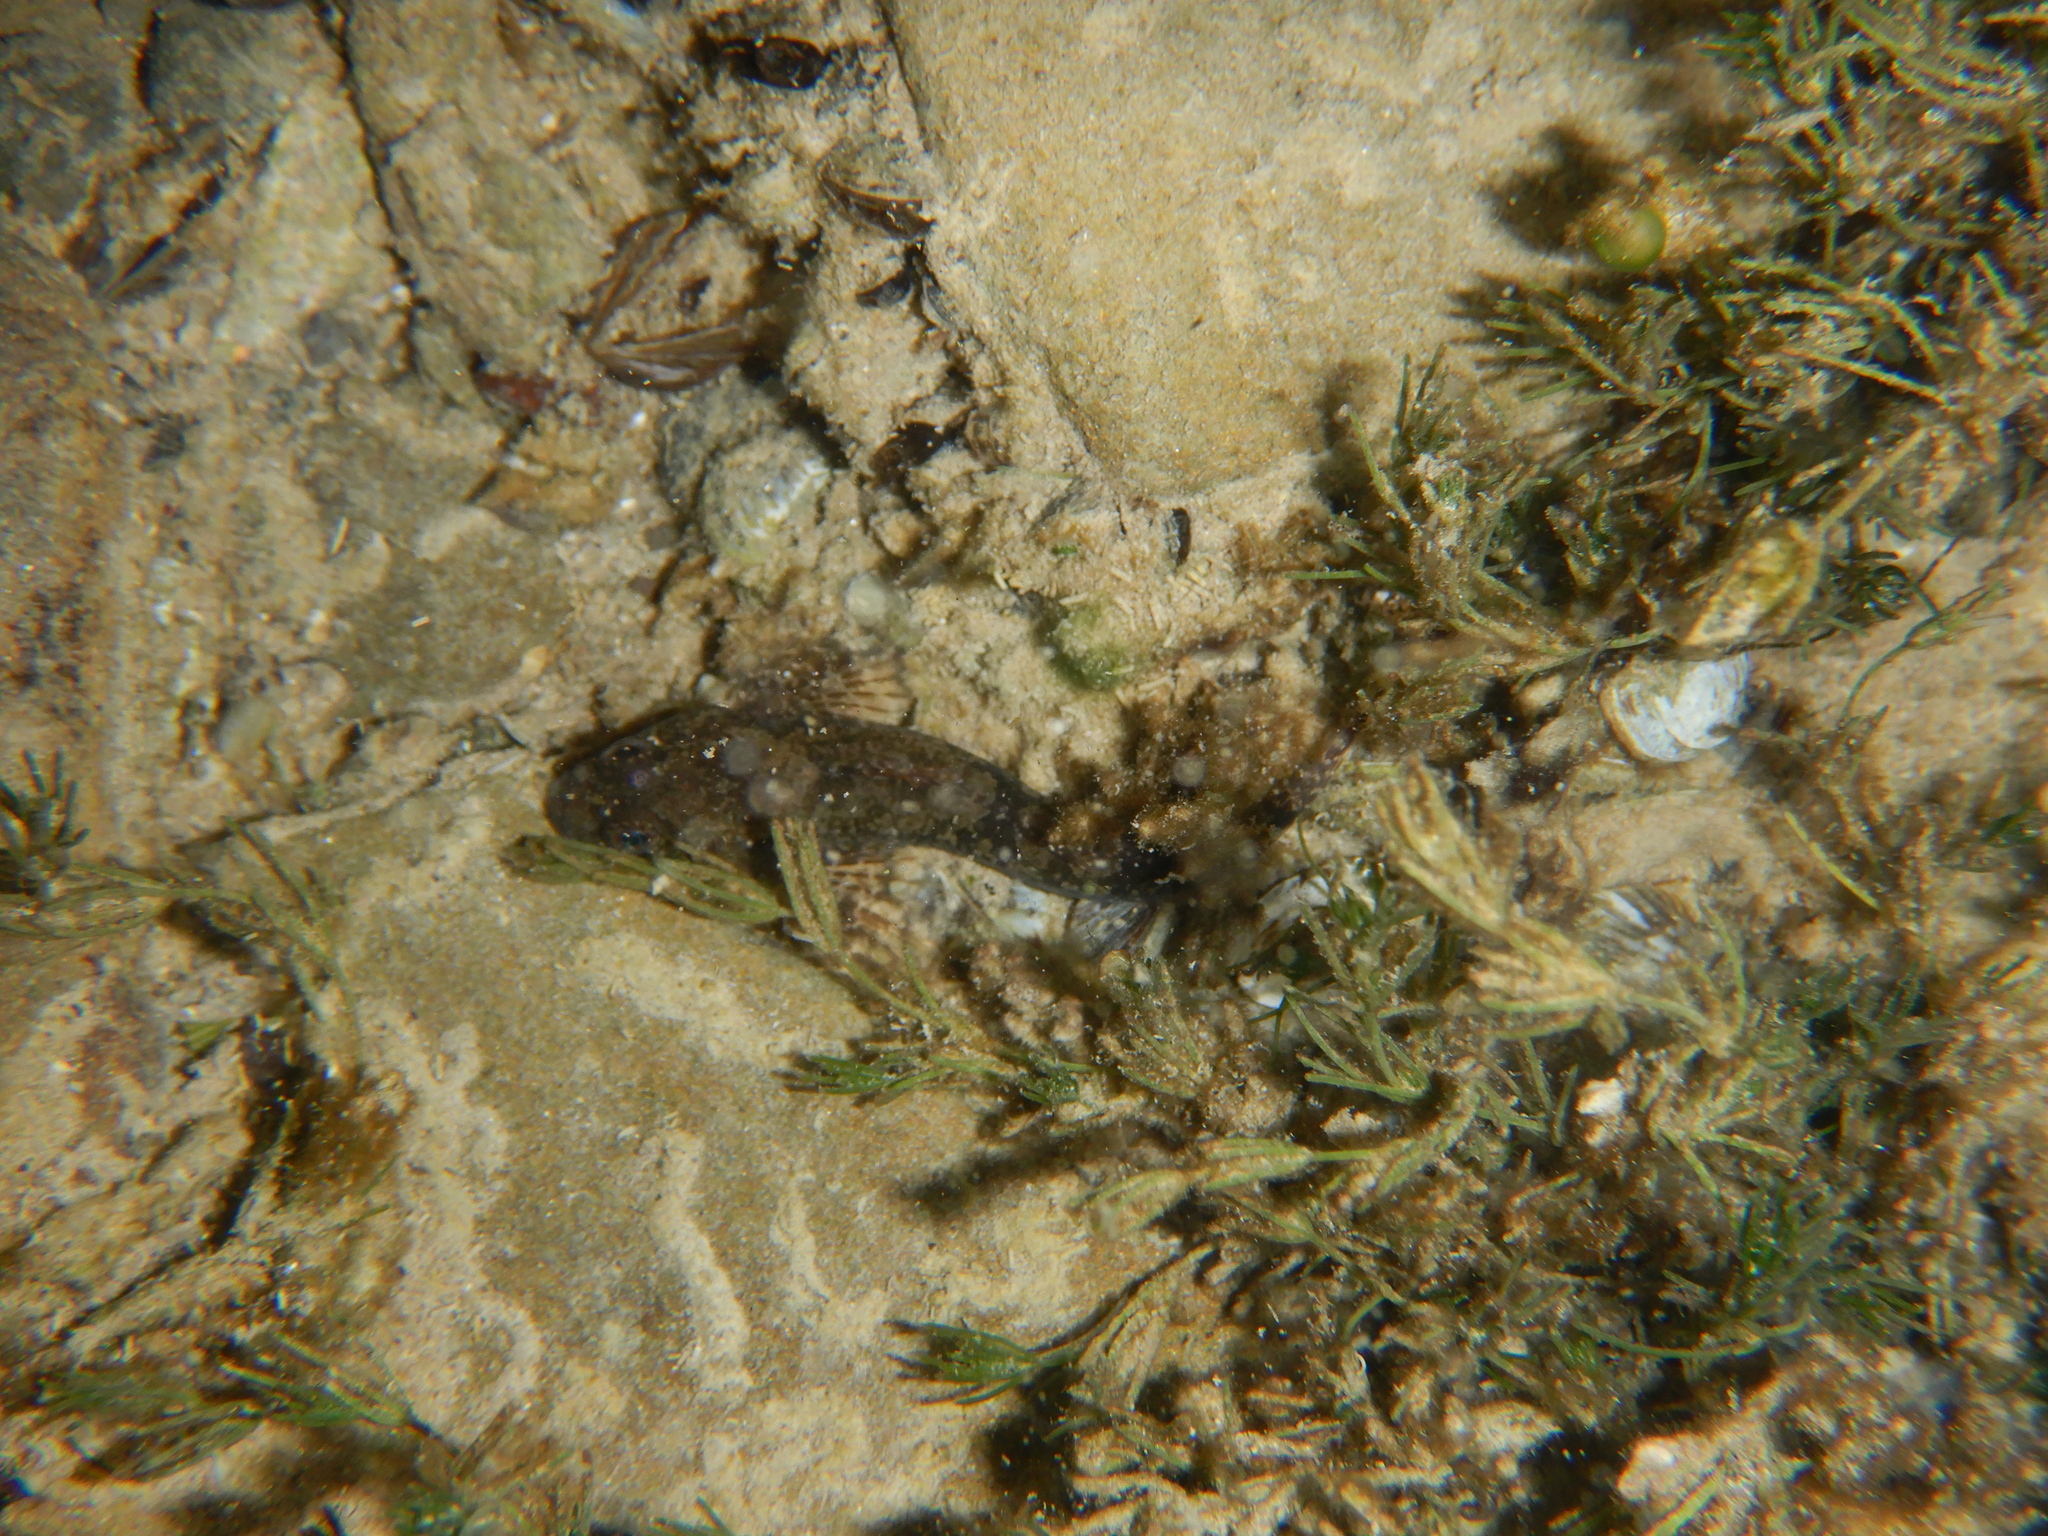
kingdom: Animalia
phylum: Chordata
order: Scorpaeniformes
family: Cottidae
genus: Cottus
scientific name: Cottus gobio
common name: Bullhead
